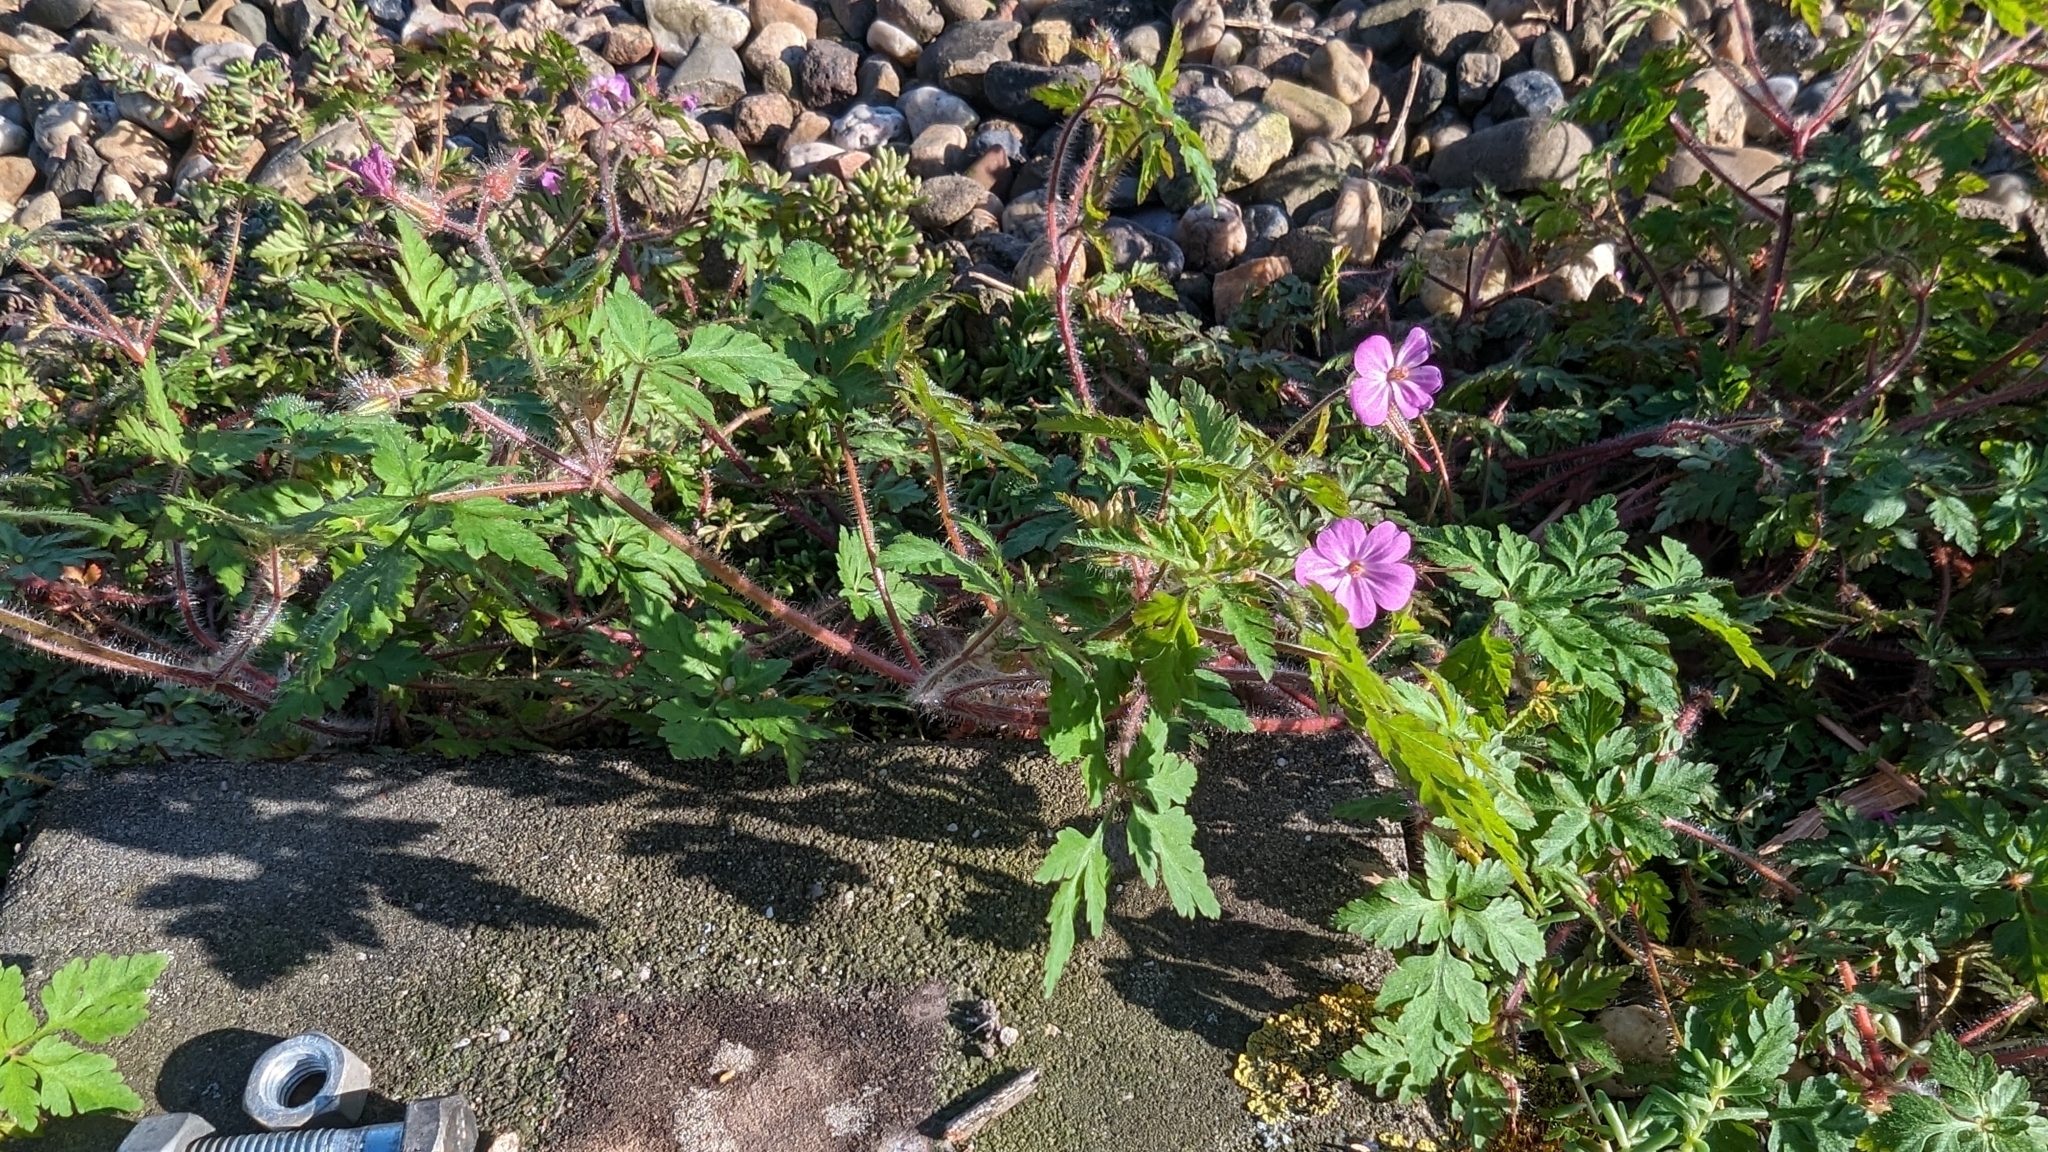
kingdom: Plantae
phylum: Tracheophyta
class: Magnoliopsida
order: Geraniales
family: Geraniaceae
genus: Geranium
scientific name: Geranium robertianum
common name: Herb-robert
